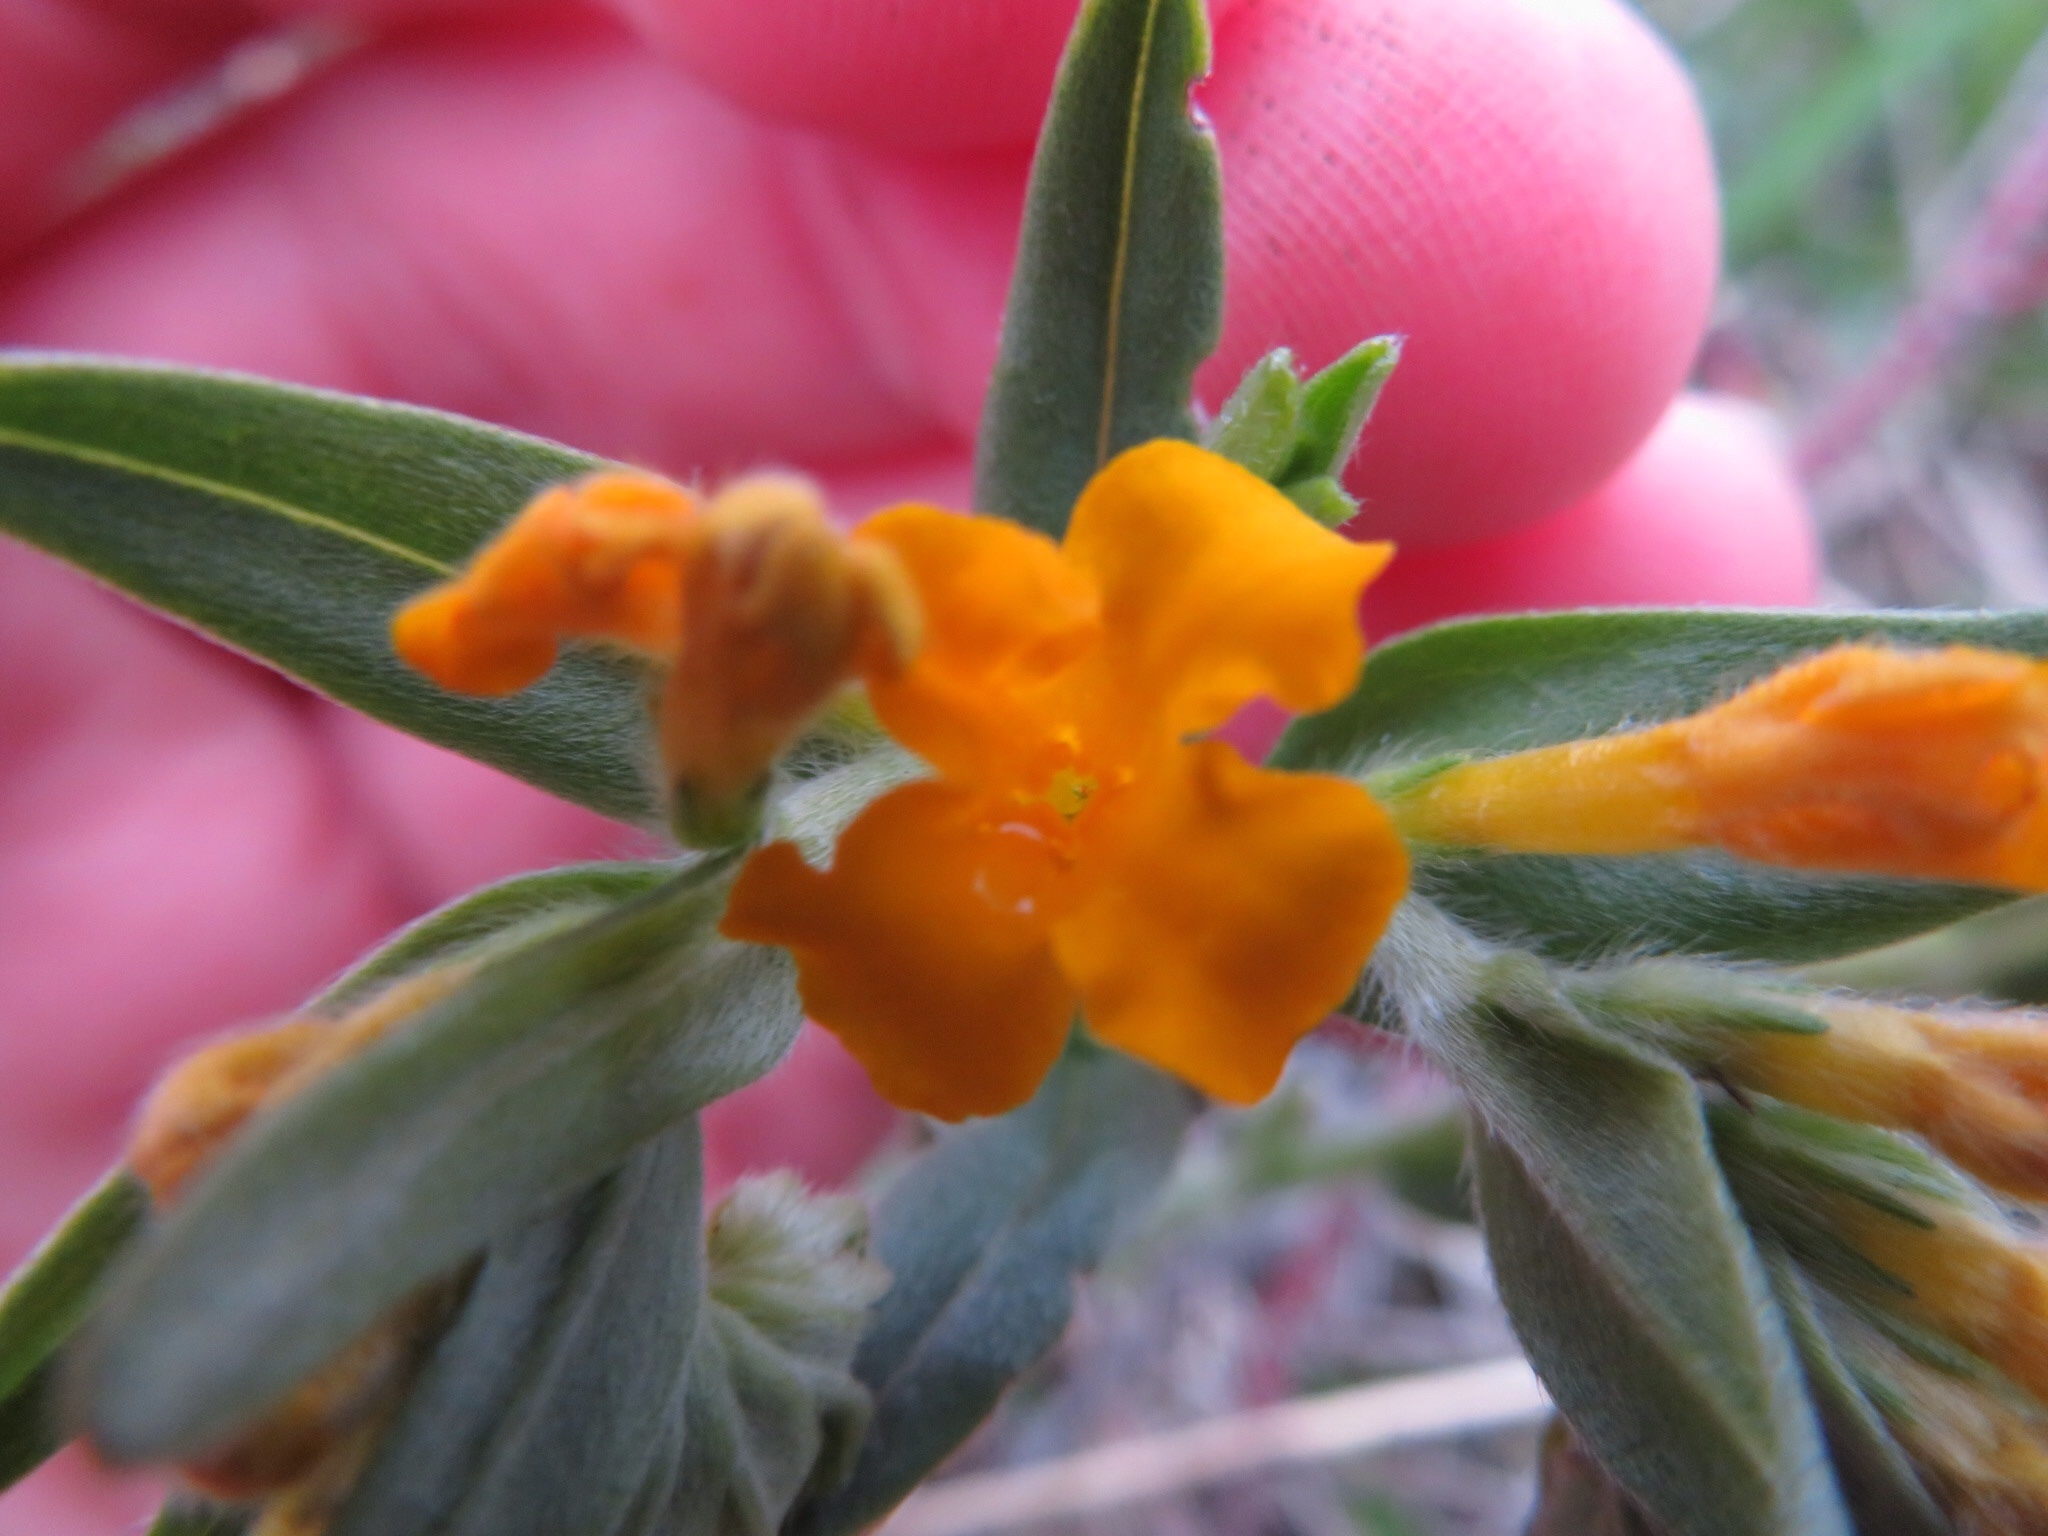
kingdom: Plantae
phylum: Tracheophyta
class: Magnoliopsida
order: Boraginales
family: Boraginaceae
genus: Lithospermum
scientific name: Lithospermum canescens
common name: Hoary puccoon
